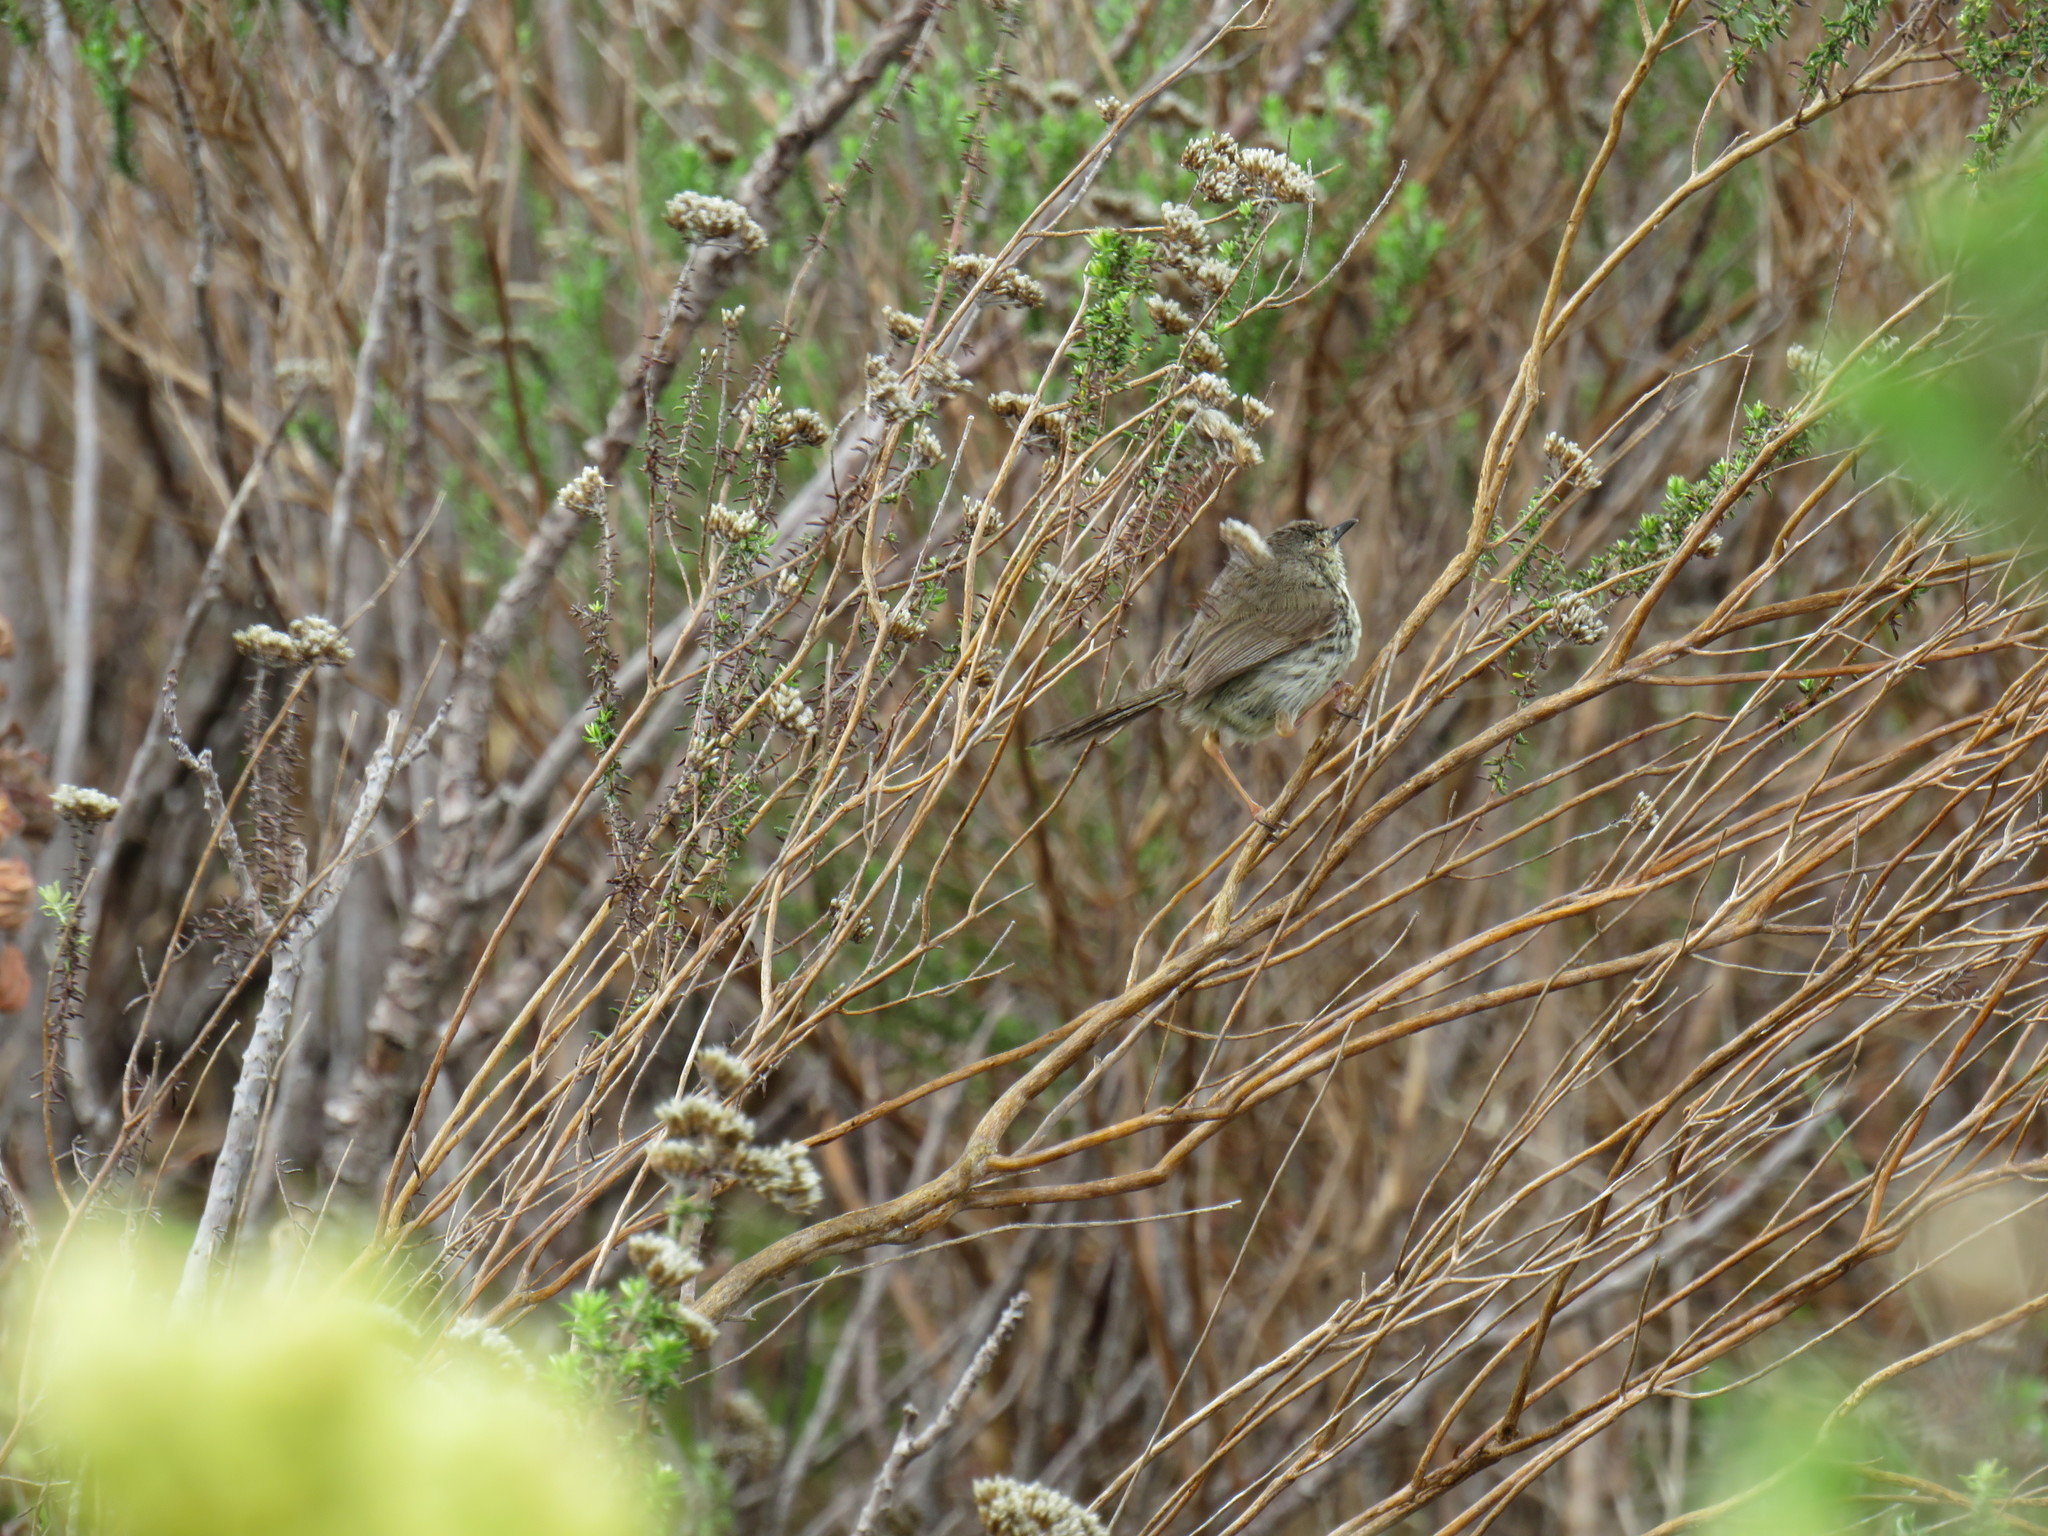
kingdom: Animalia
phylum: Chordata
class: Aves
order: Passeriformes
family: Cisticolidae
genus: Prinia
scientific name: Prinia maculosa
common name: Karoo prinia
